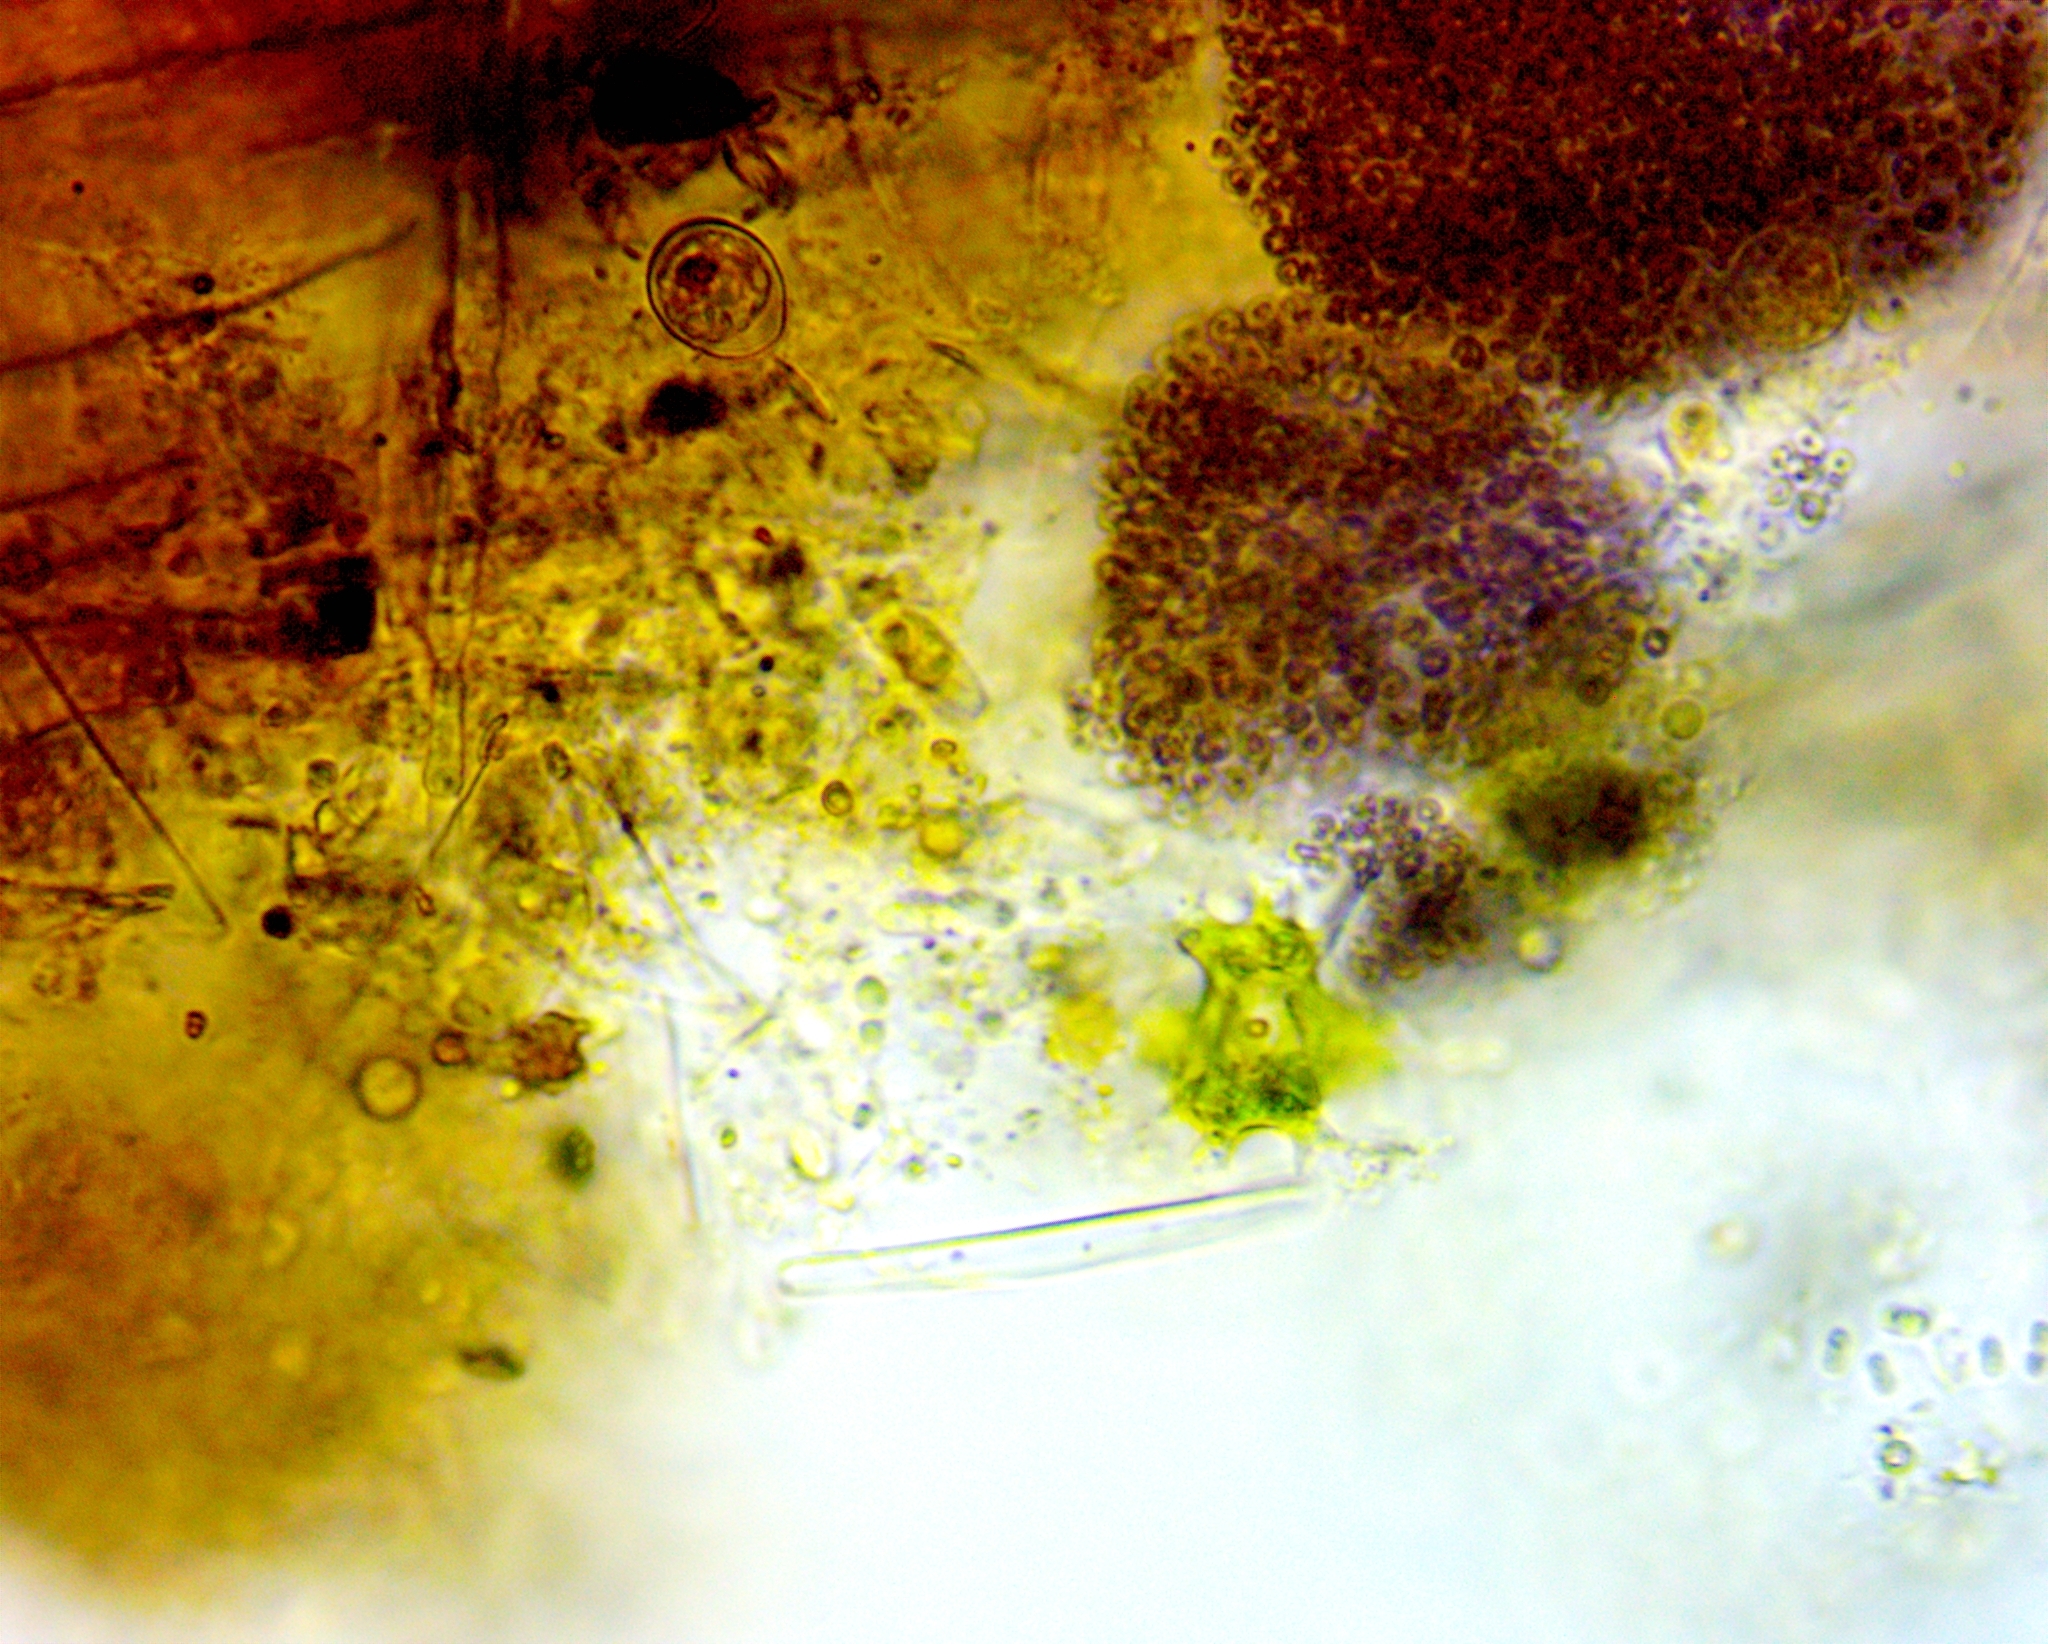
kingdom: Chromista
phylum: Ochrophyta
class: Eustigmatophyceae
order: Eustigmatales
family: Eustigmataceae
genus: Pseudostaurastrum
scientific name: Pseudostaurastrum enorme
